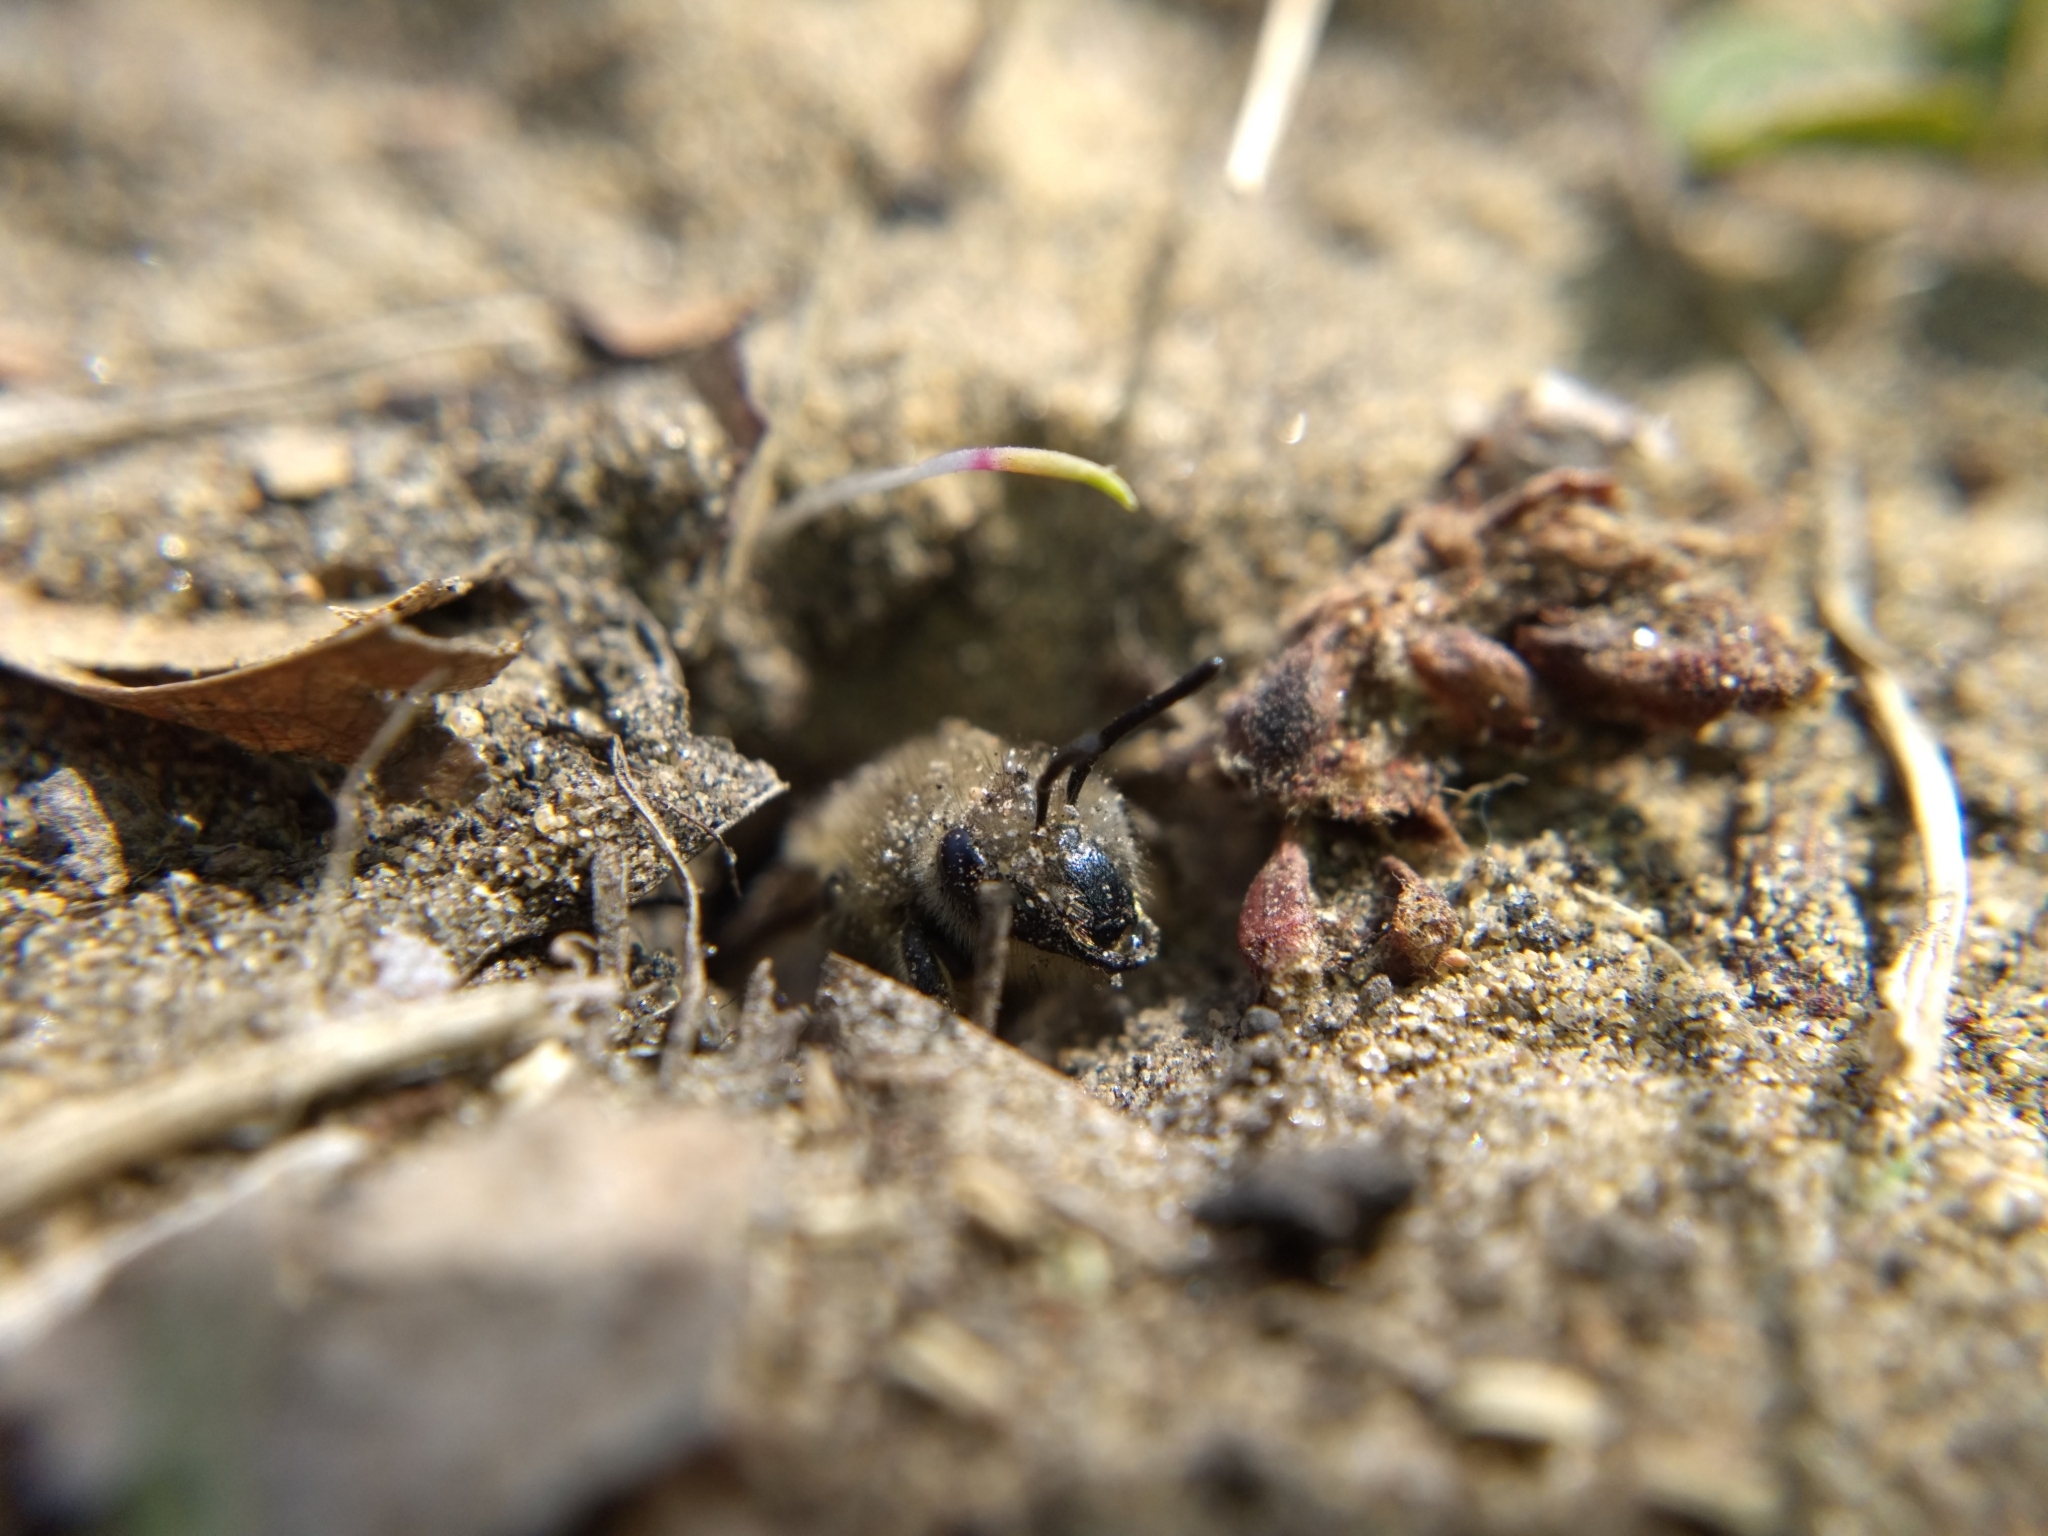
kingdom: Animalia
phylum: Arthropoda
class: Insecta
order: Hymenoptera
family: Colletidae
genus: Colletes
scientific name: Colletes inaequalis
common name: Unequal cellophane bee
